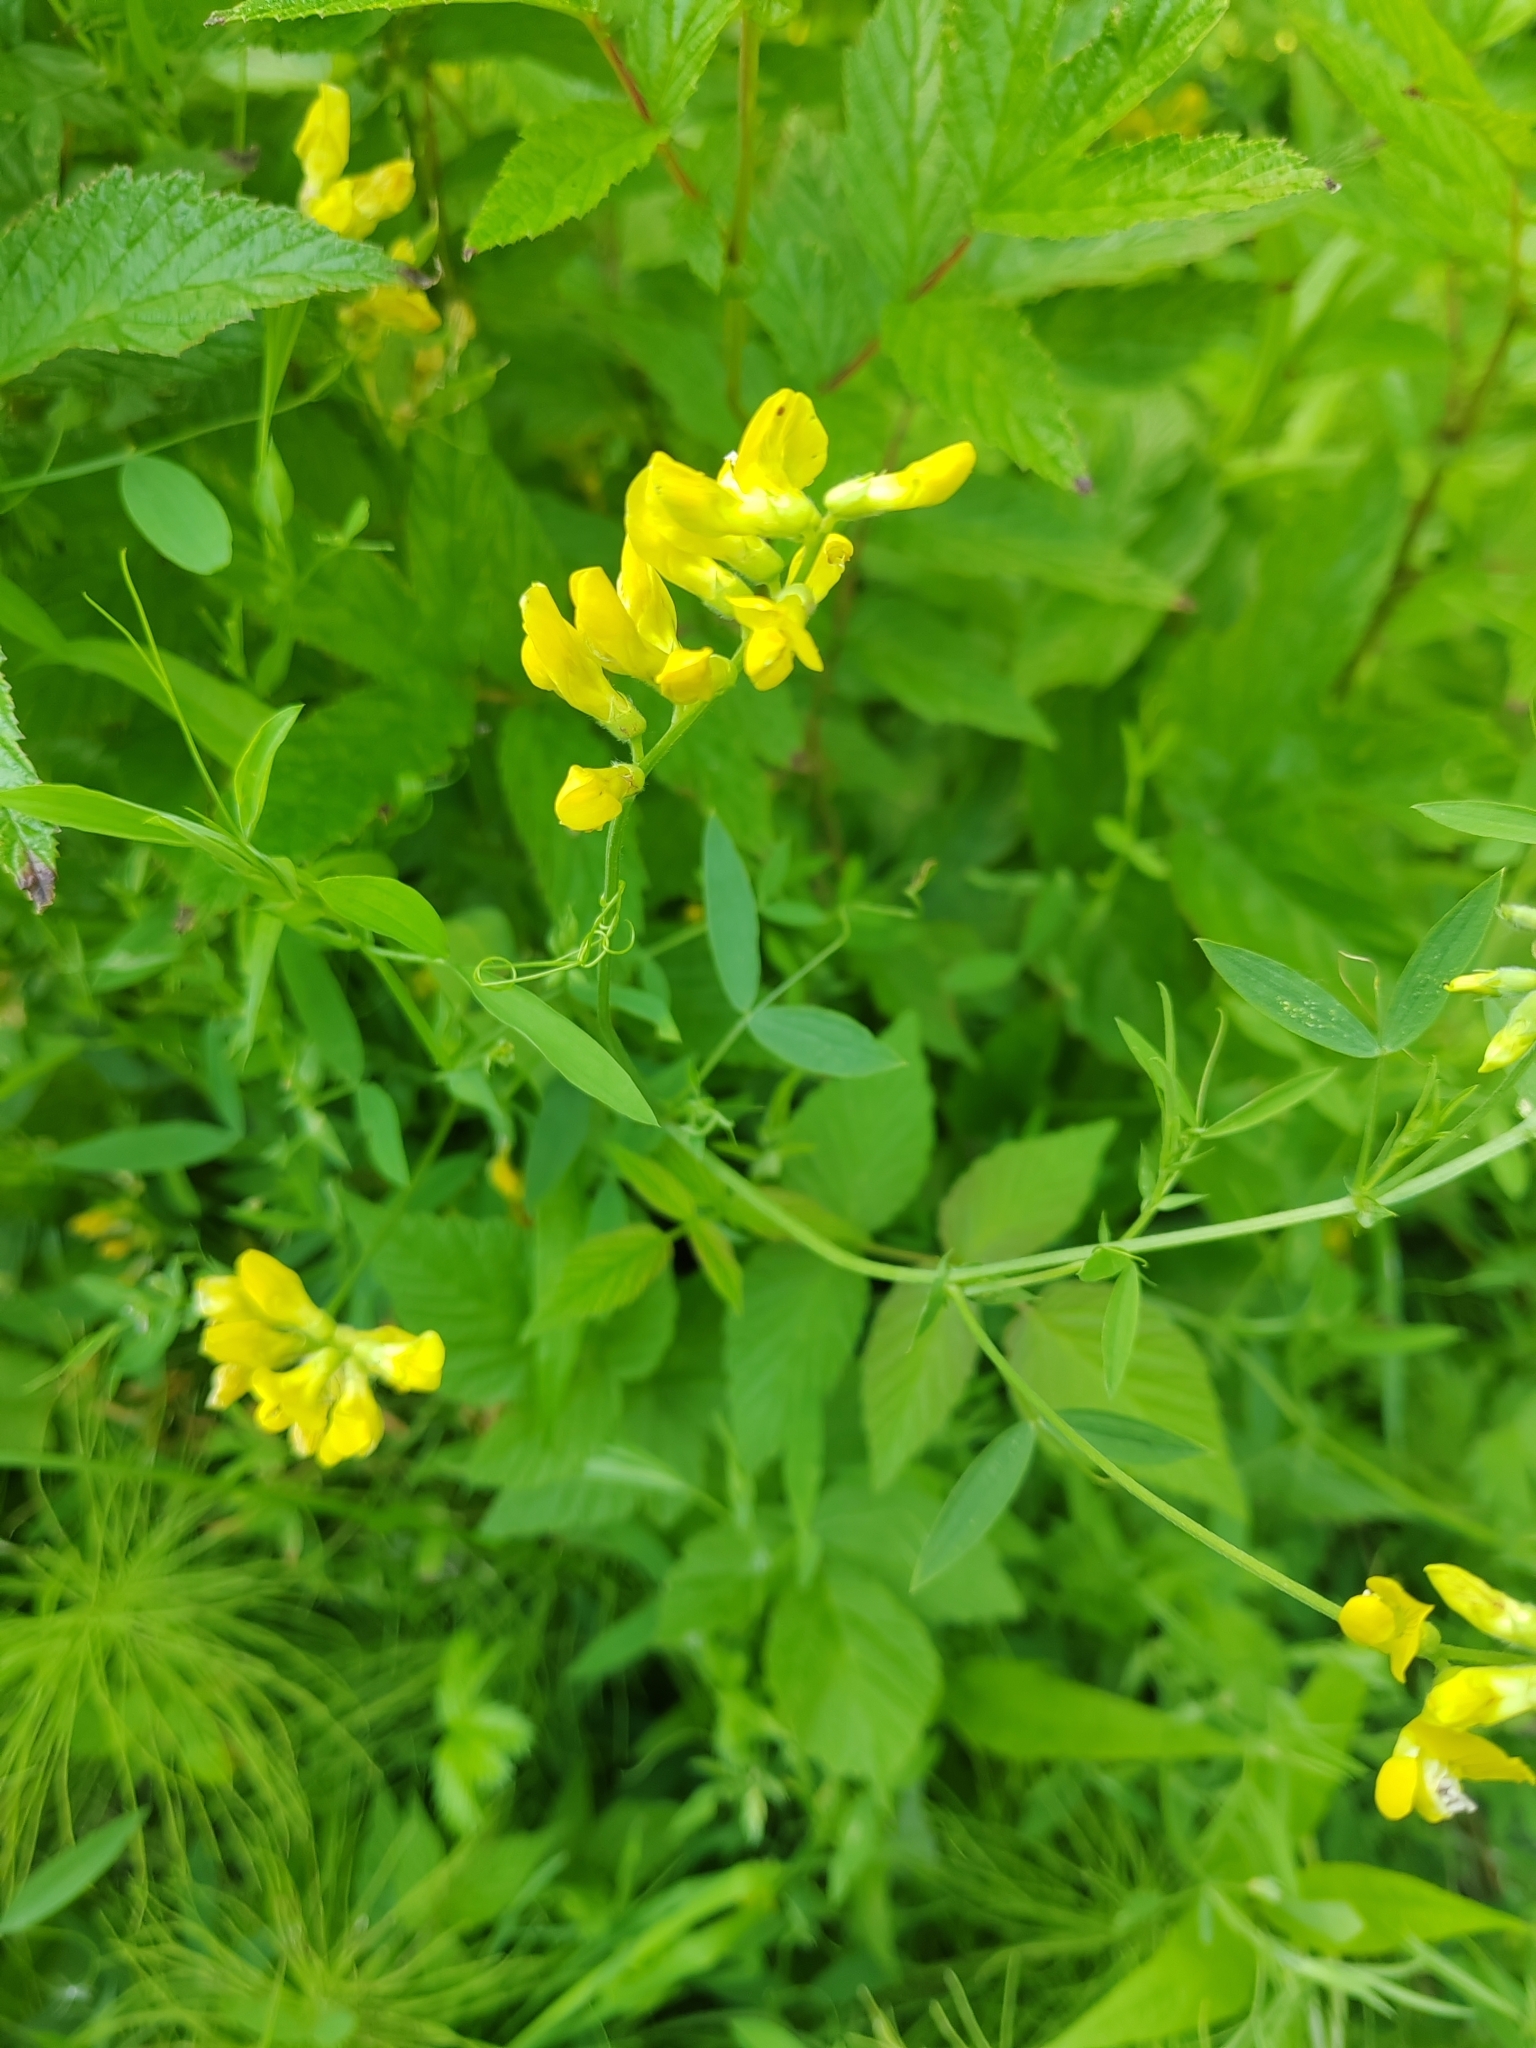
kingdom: Plantae
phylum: Tracheophyta
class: Magnoliopsida
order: Fabales
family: Fabaceae
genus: Lathyrus
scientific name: Lathyrus pratensis
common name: Meadow vetchling
